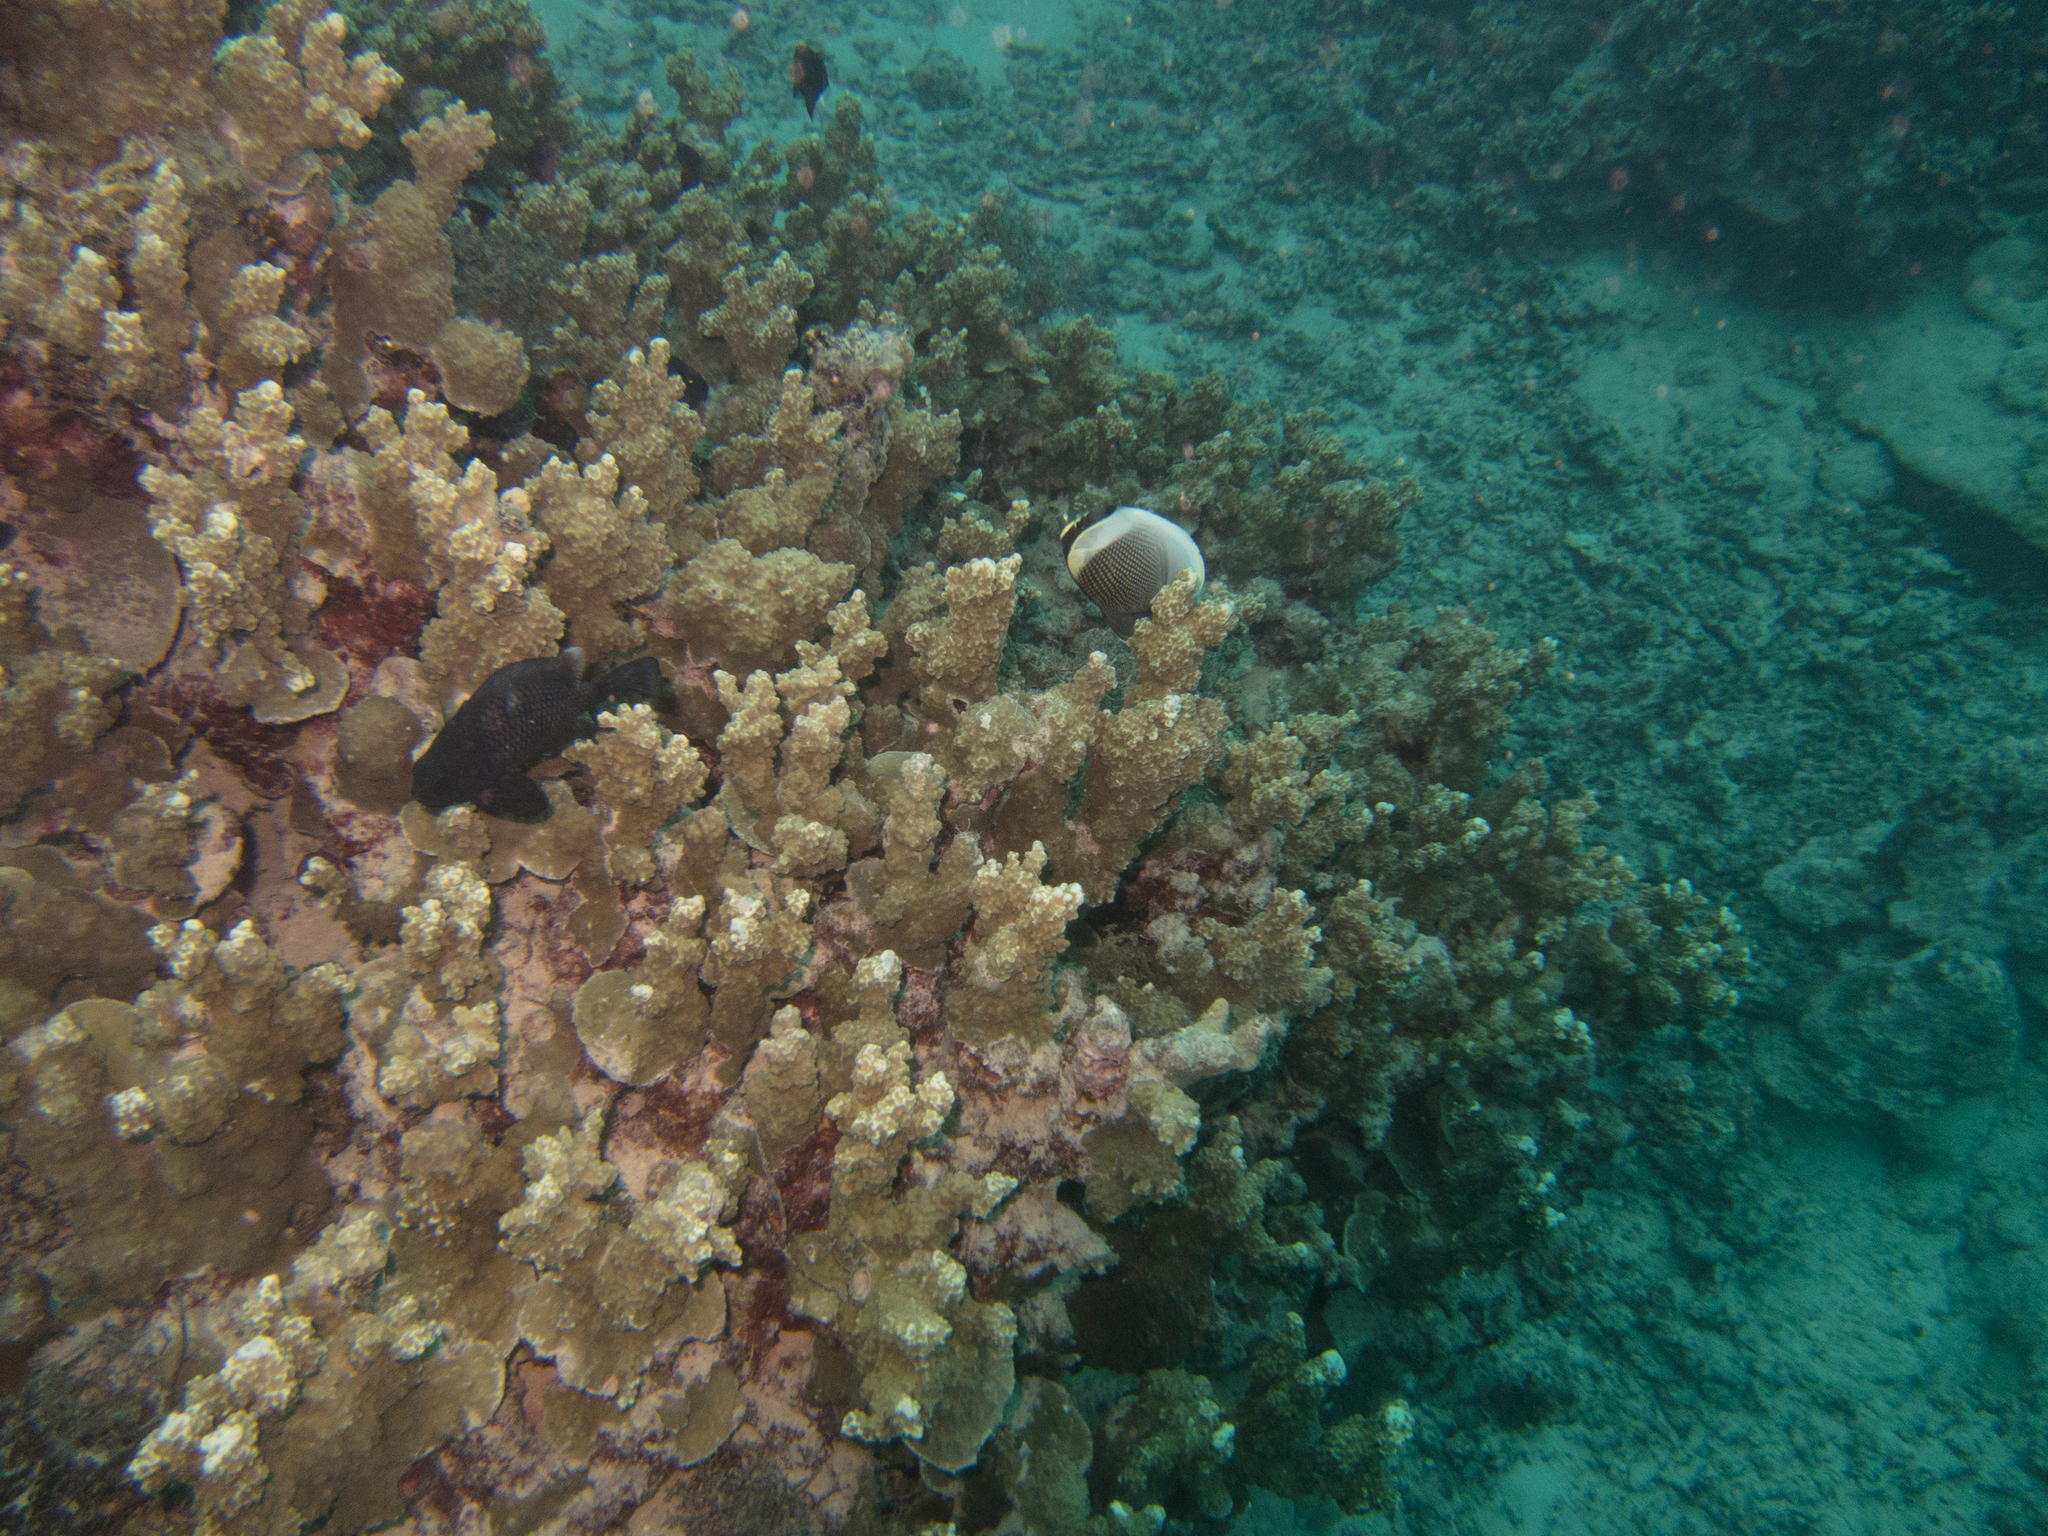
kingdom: Animalia
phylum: Cnidaria
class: Anthozoa
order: Scleractinia
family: Poritidae
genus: Porites
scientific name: Porites rus
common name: Hump coral
